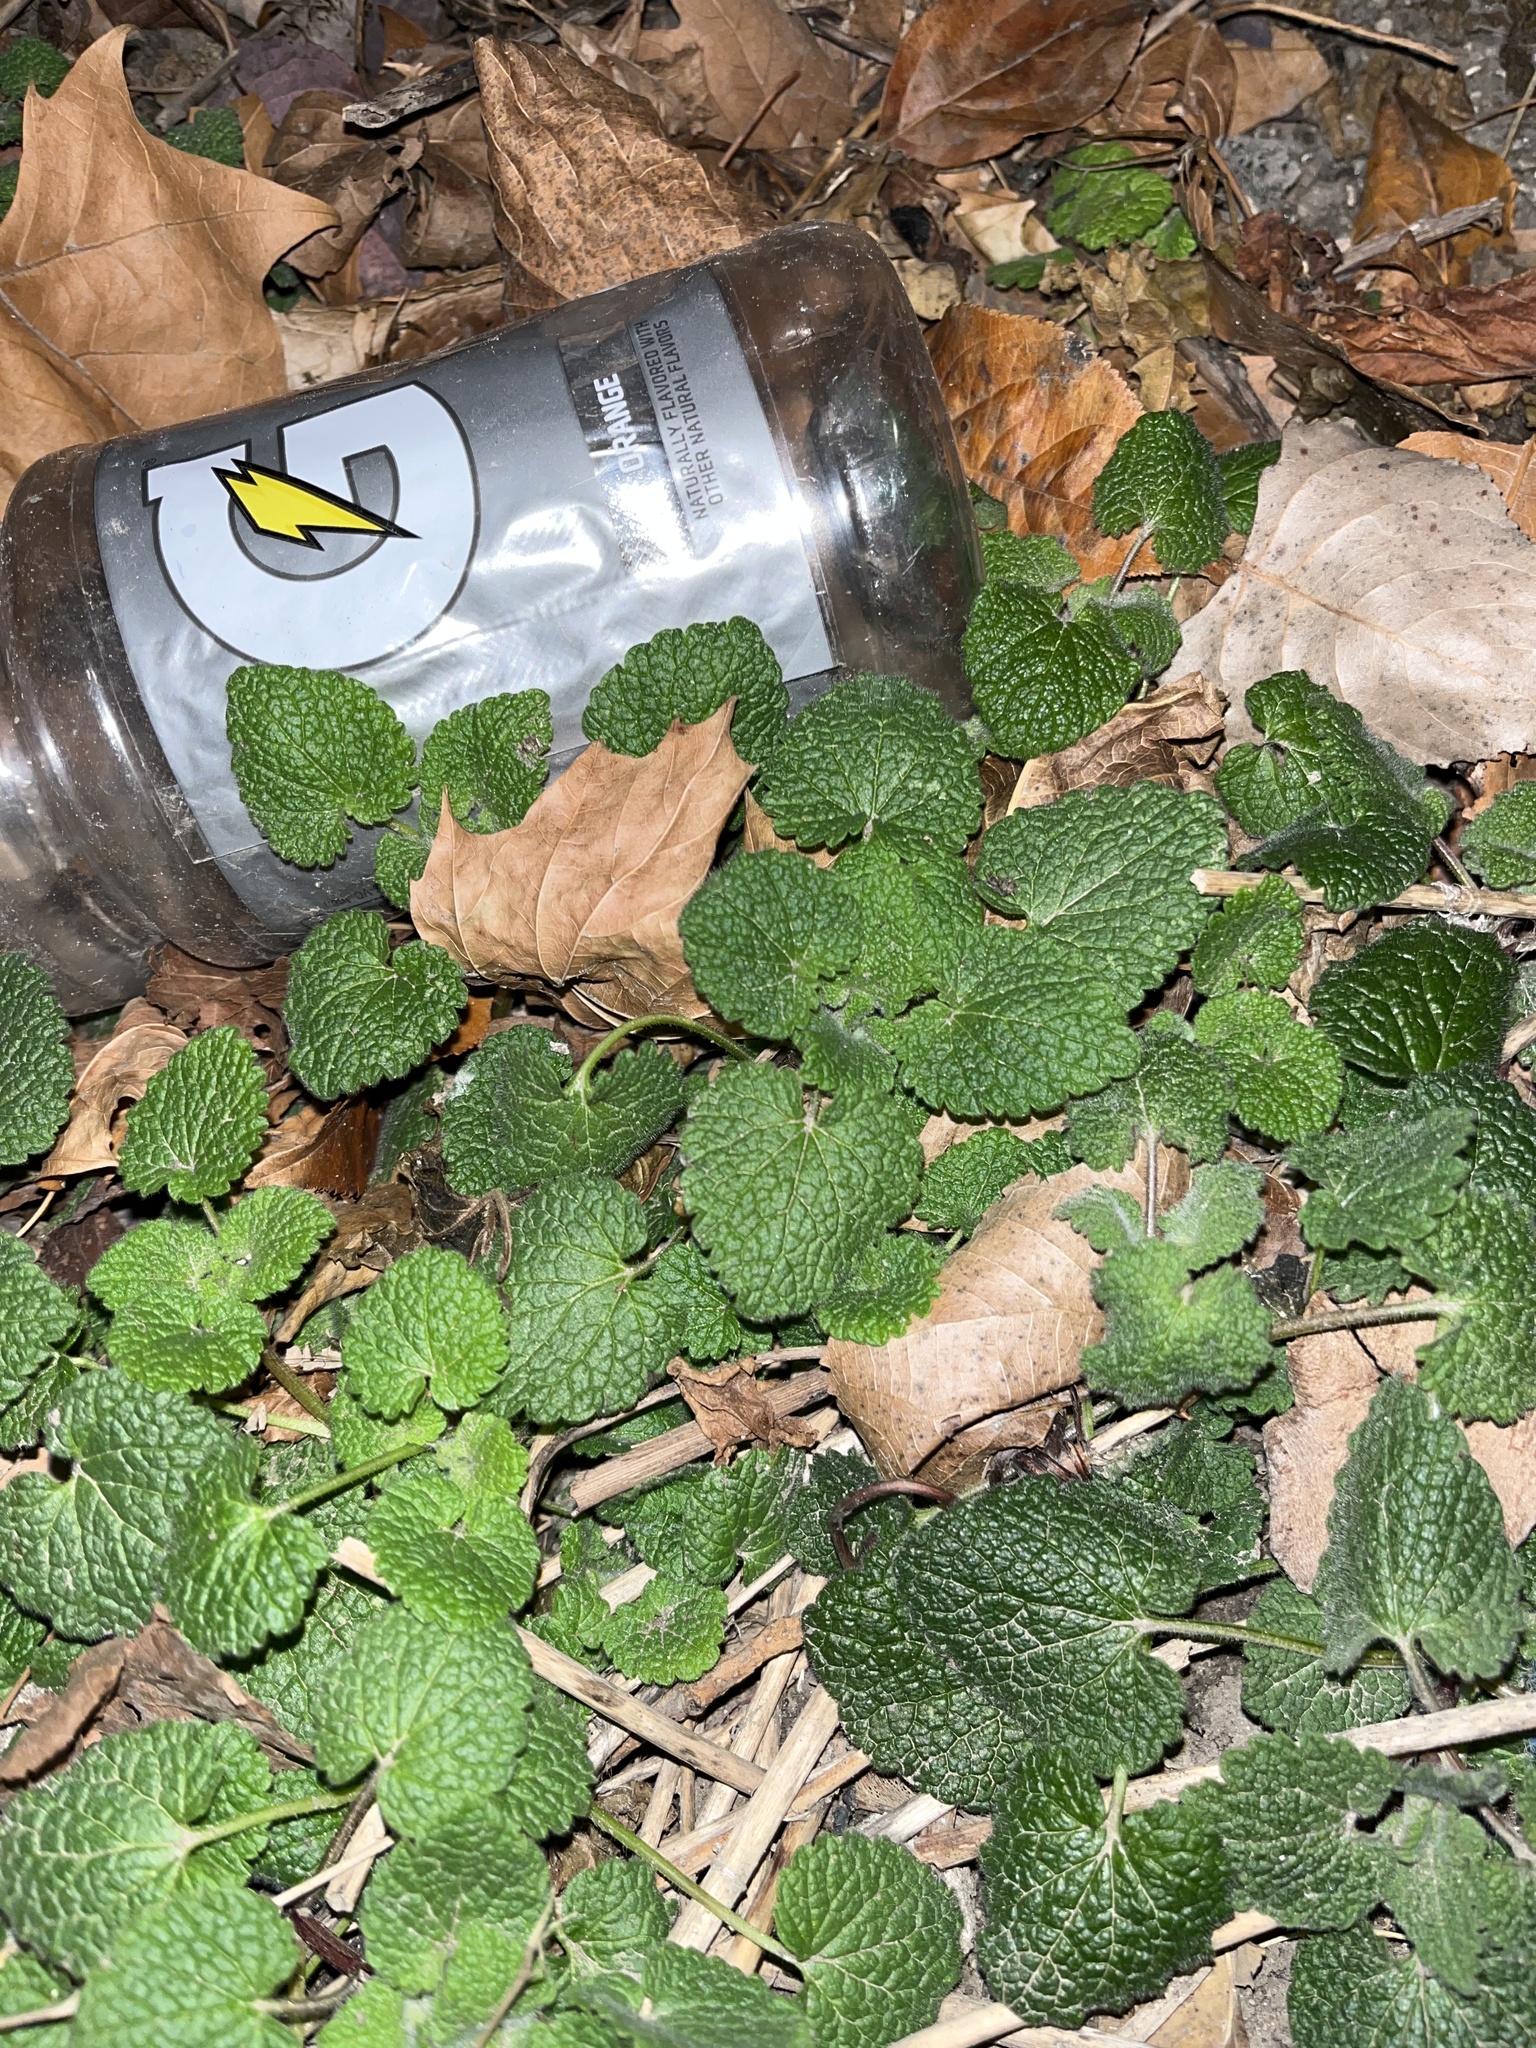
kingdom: Plantae
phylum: Tracheophyta
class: Magnoliopsida
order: Lamiales
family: Lamiaceae
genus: Lamium
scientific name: Lamium purpureum
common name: Red dead-nettle
